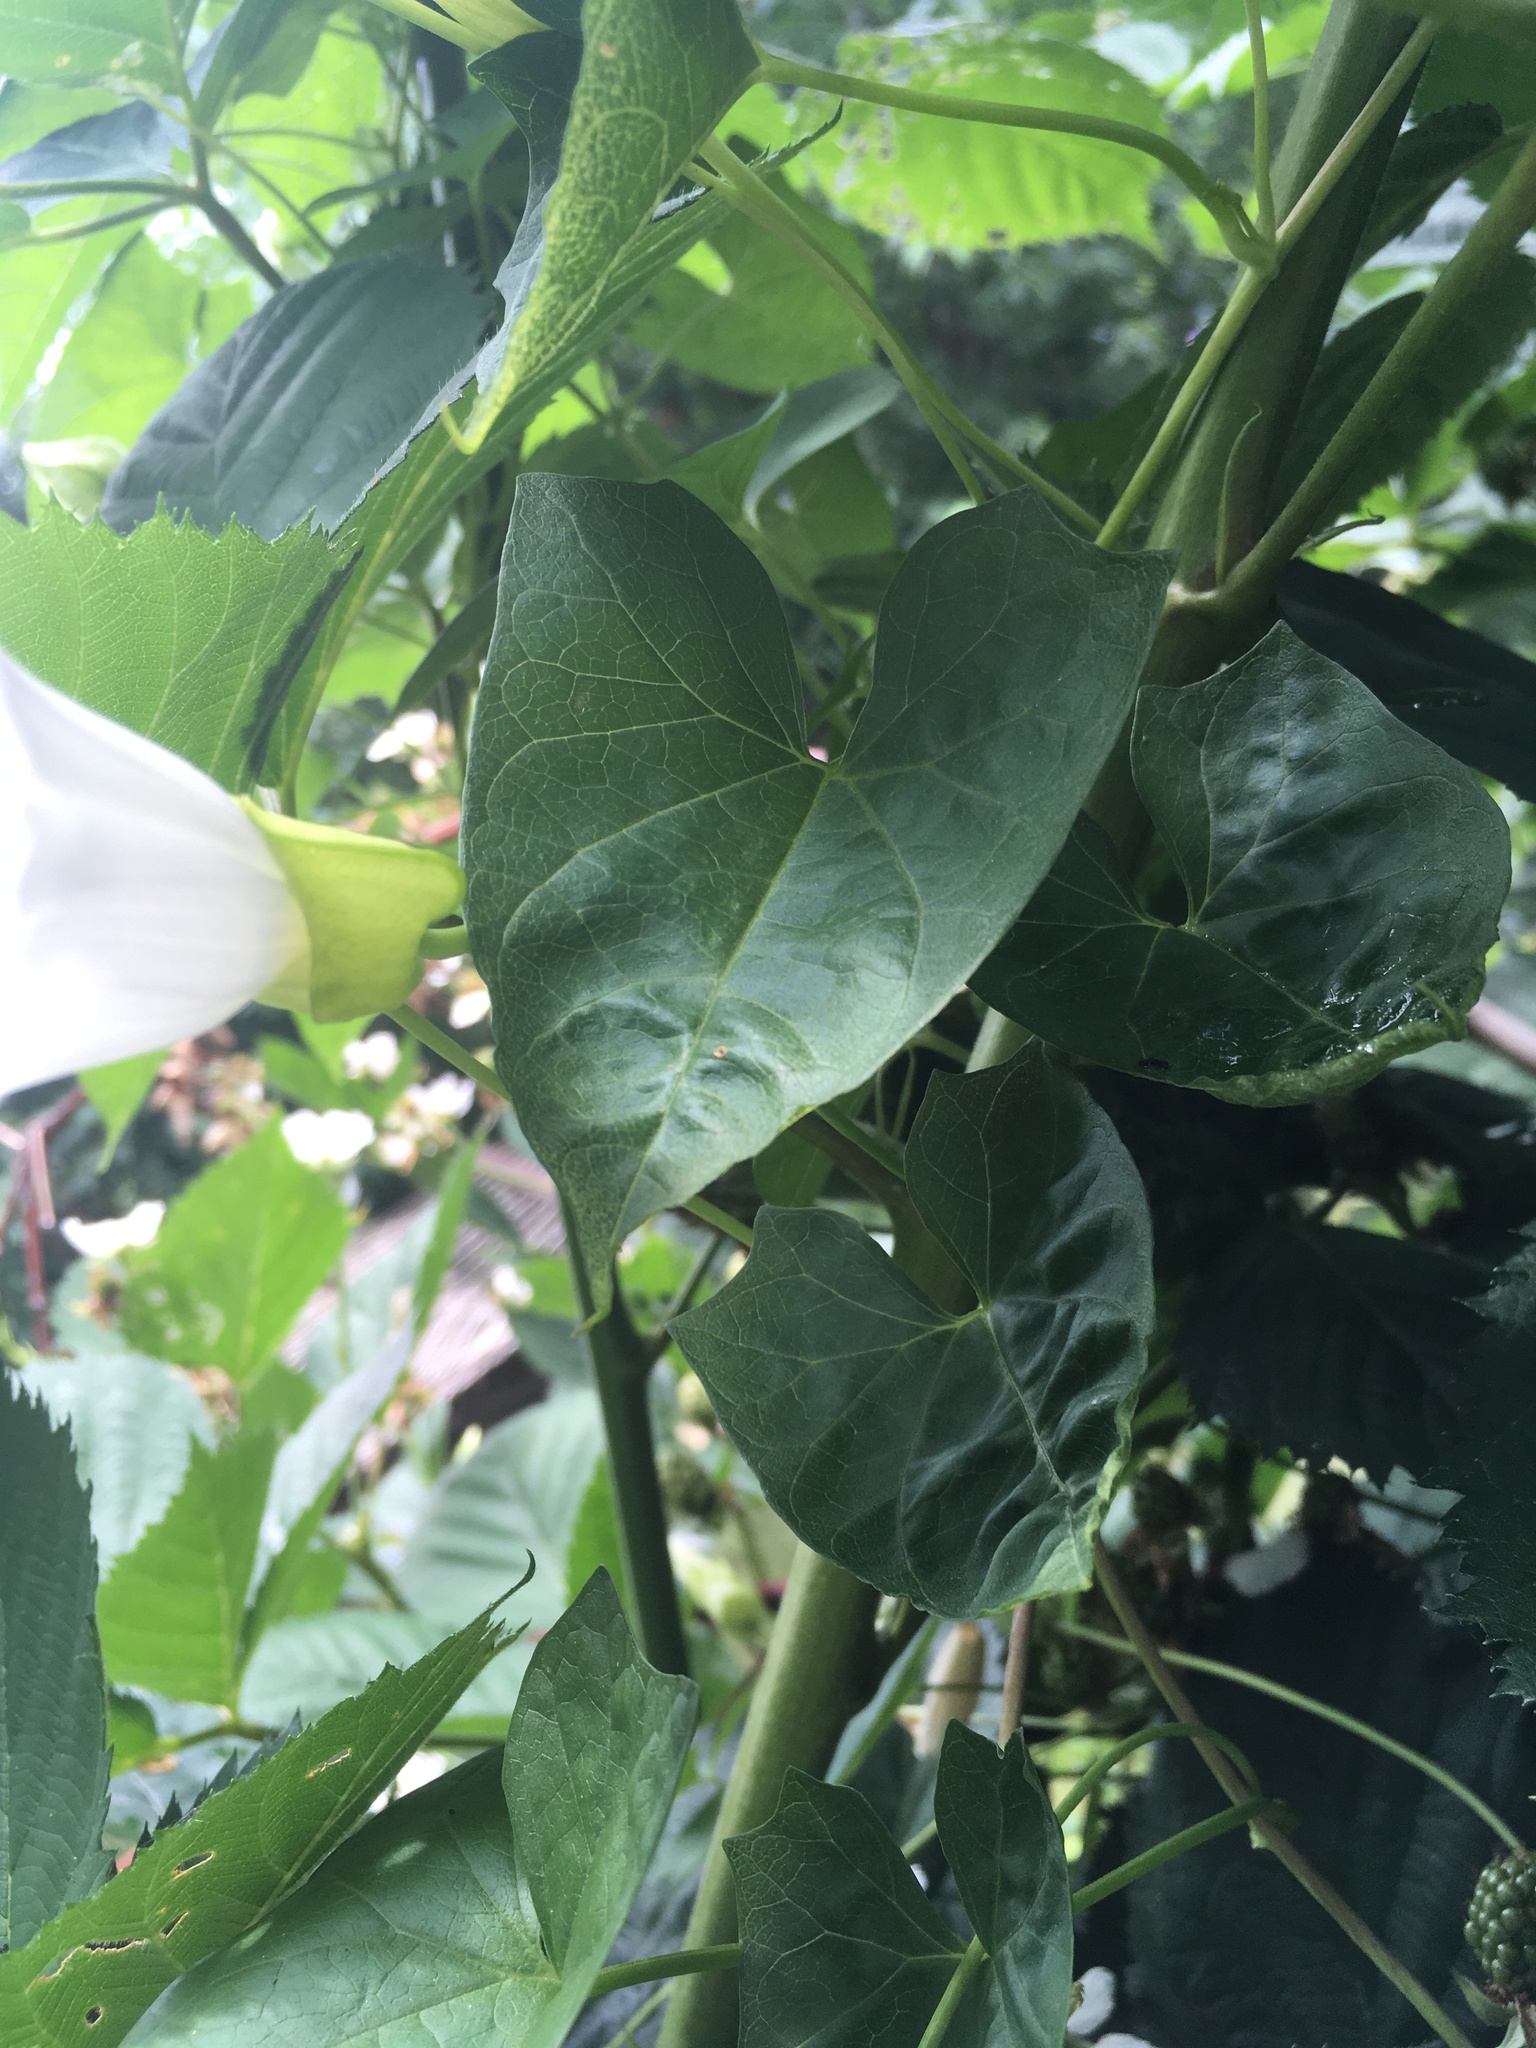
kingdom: Plantae
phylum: Tracheophyta
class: Magnoliopsida
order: Solanales
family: Convolvulaceae
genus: Calystegia
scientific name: Calystegia sepium
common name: Hedge bindweed
